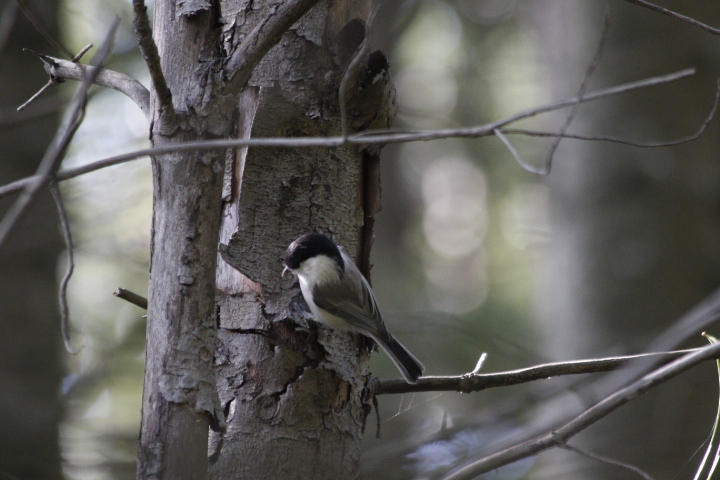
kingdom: Animalia
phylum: Chordata
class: Aves
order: Passeriformes
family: Paridae
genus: Poecile
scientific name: Poecile montanus
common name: Willow tit
